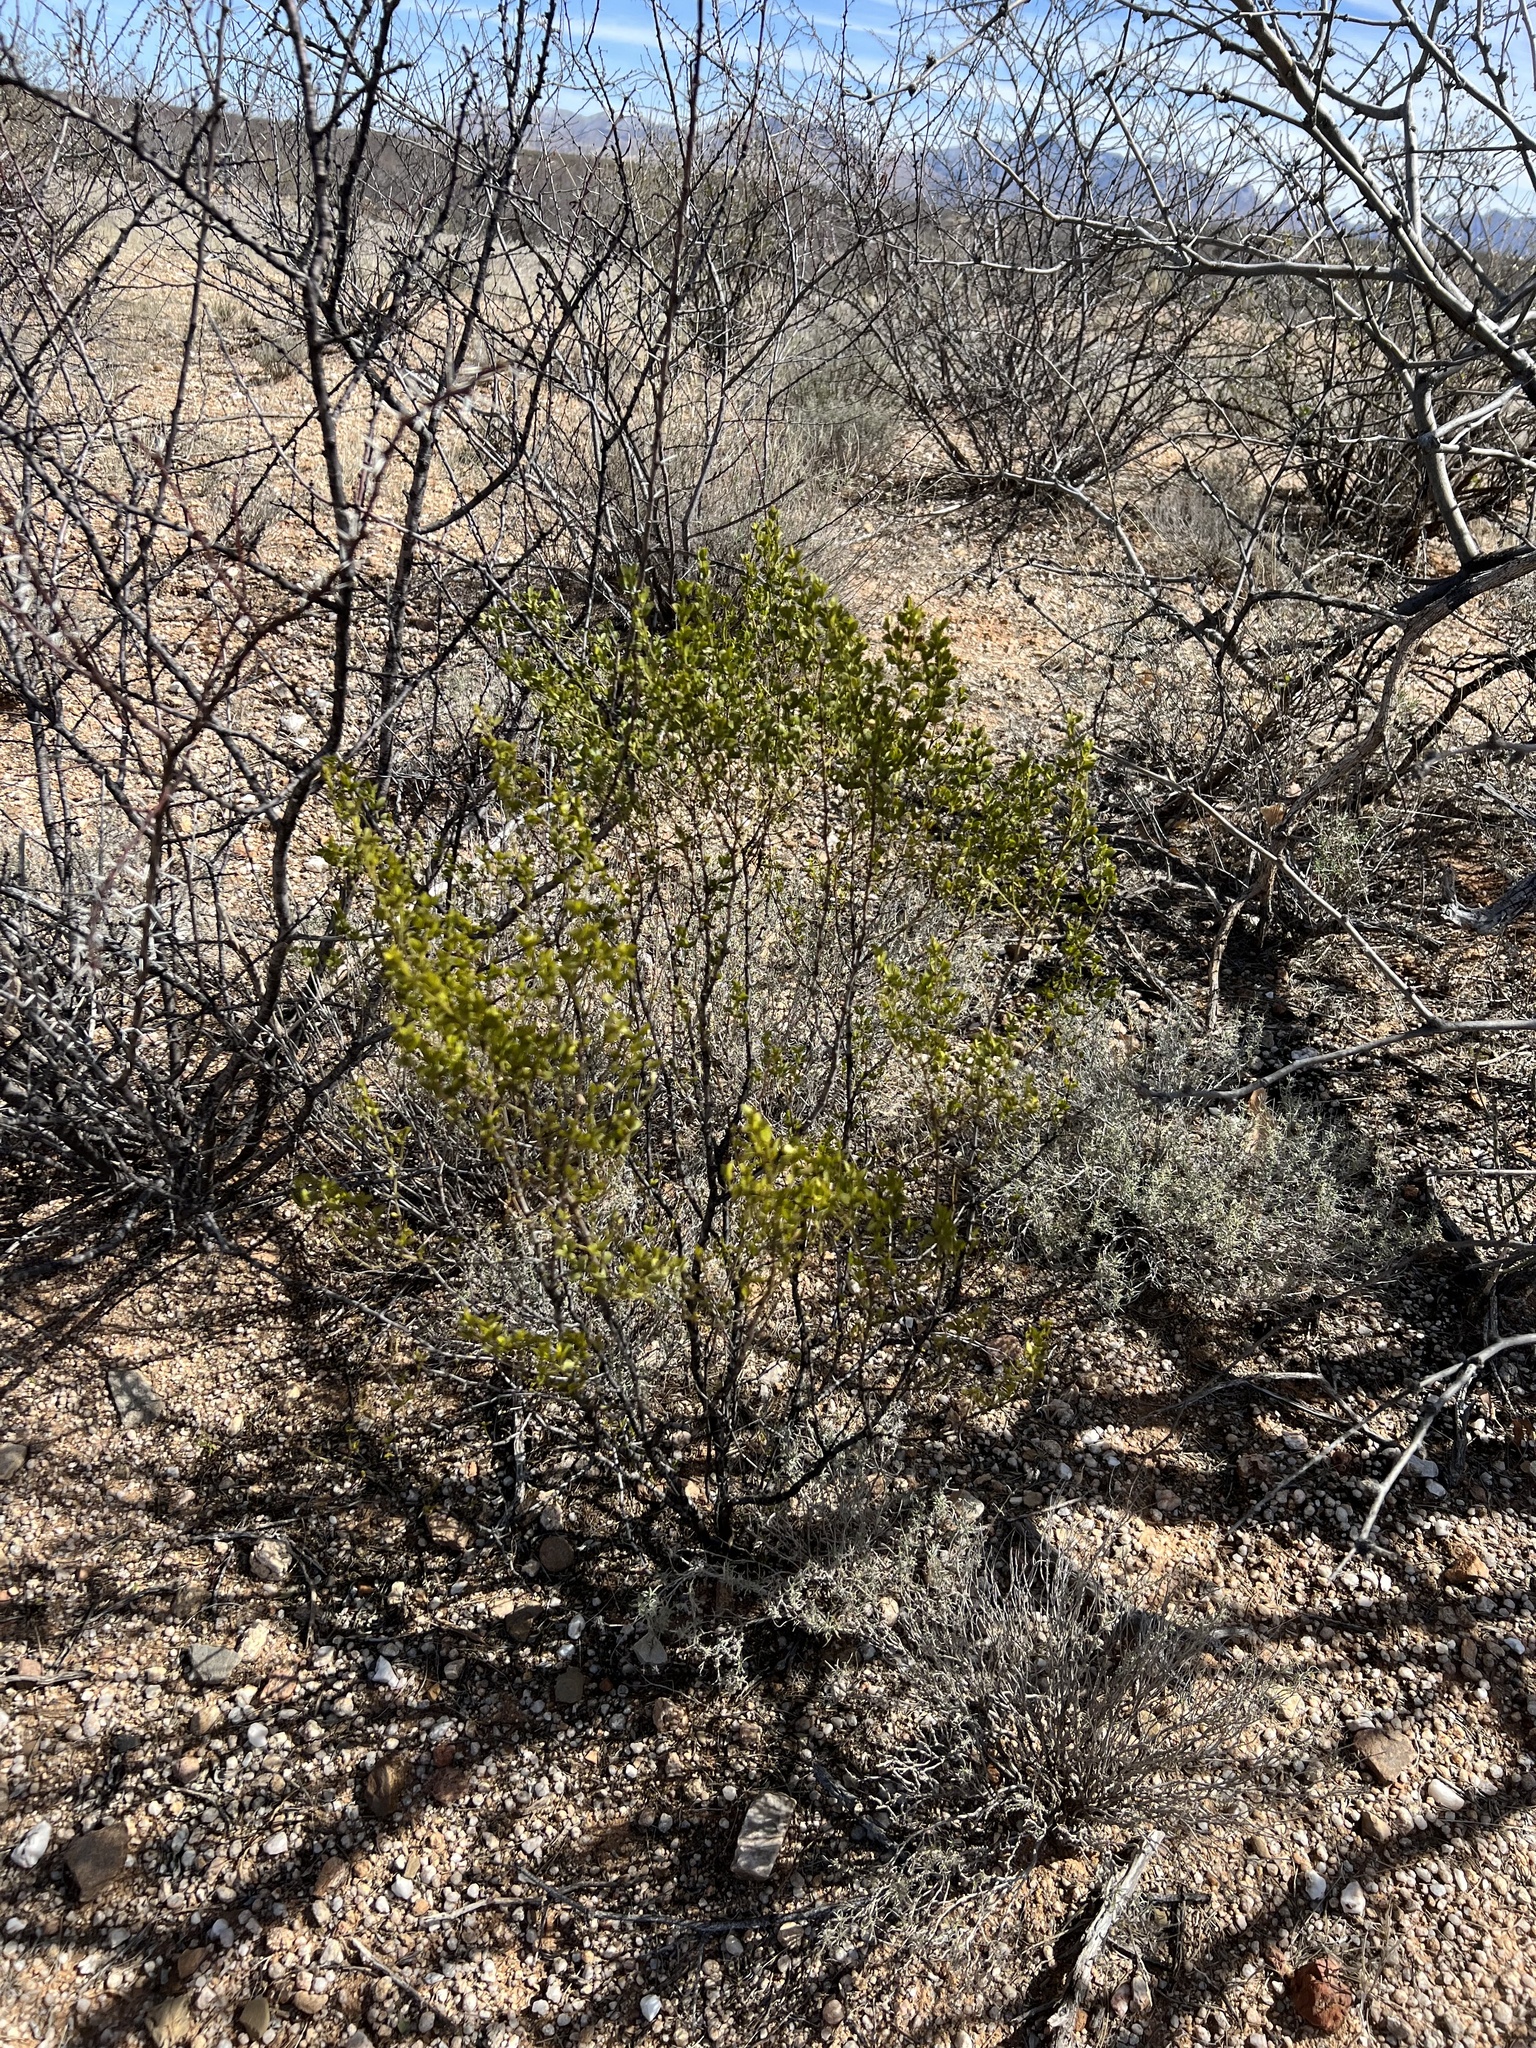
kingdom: Plantae
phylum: Tracheophyta
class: Magnoliopsida
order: Zygophyllales
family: Zygophyllaceae
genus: Larrea
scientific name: Larrea tridentata
